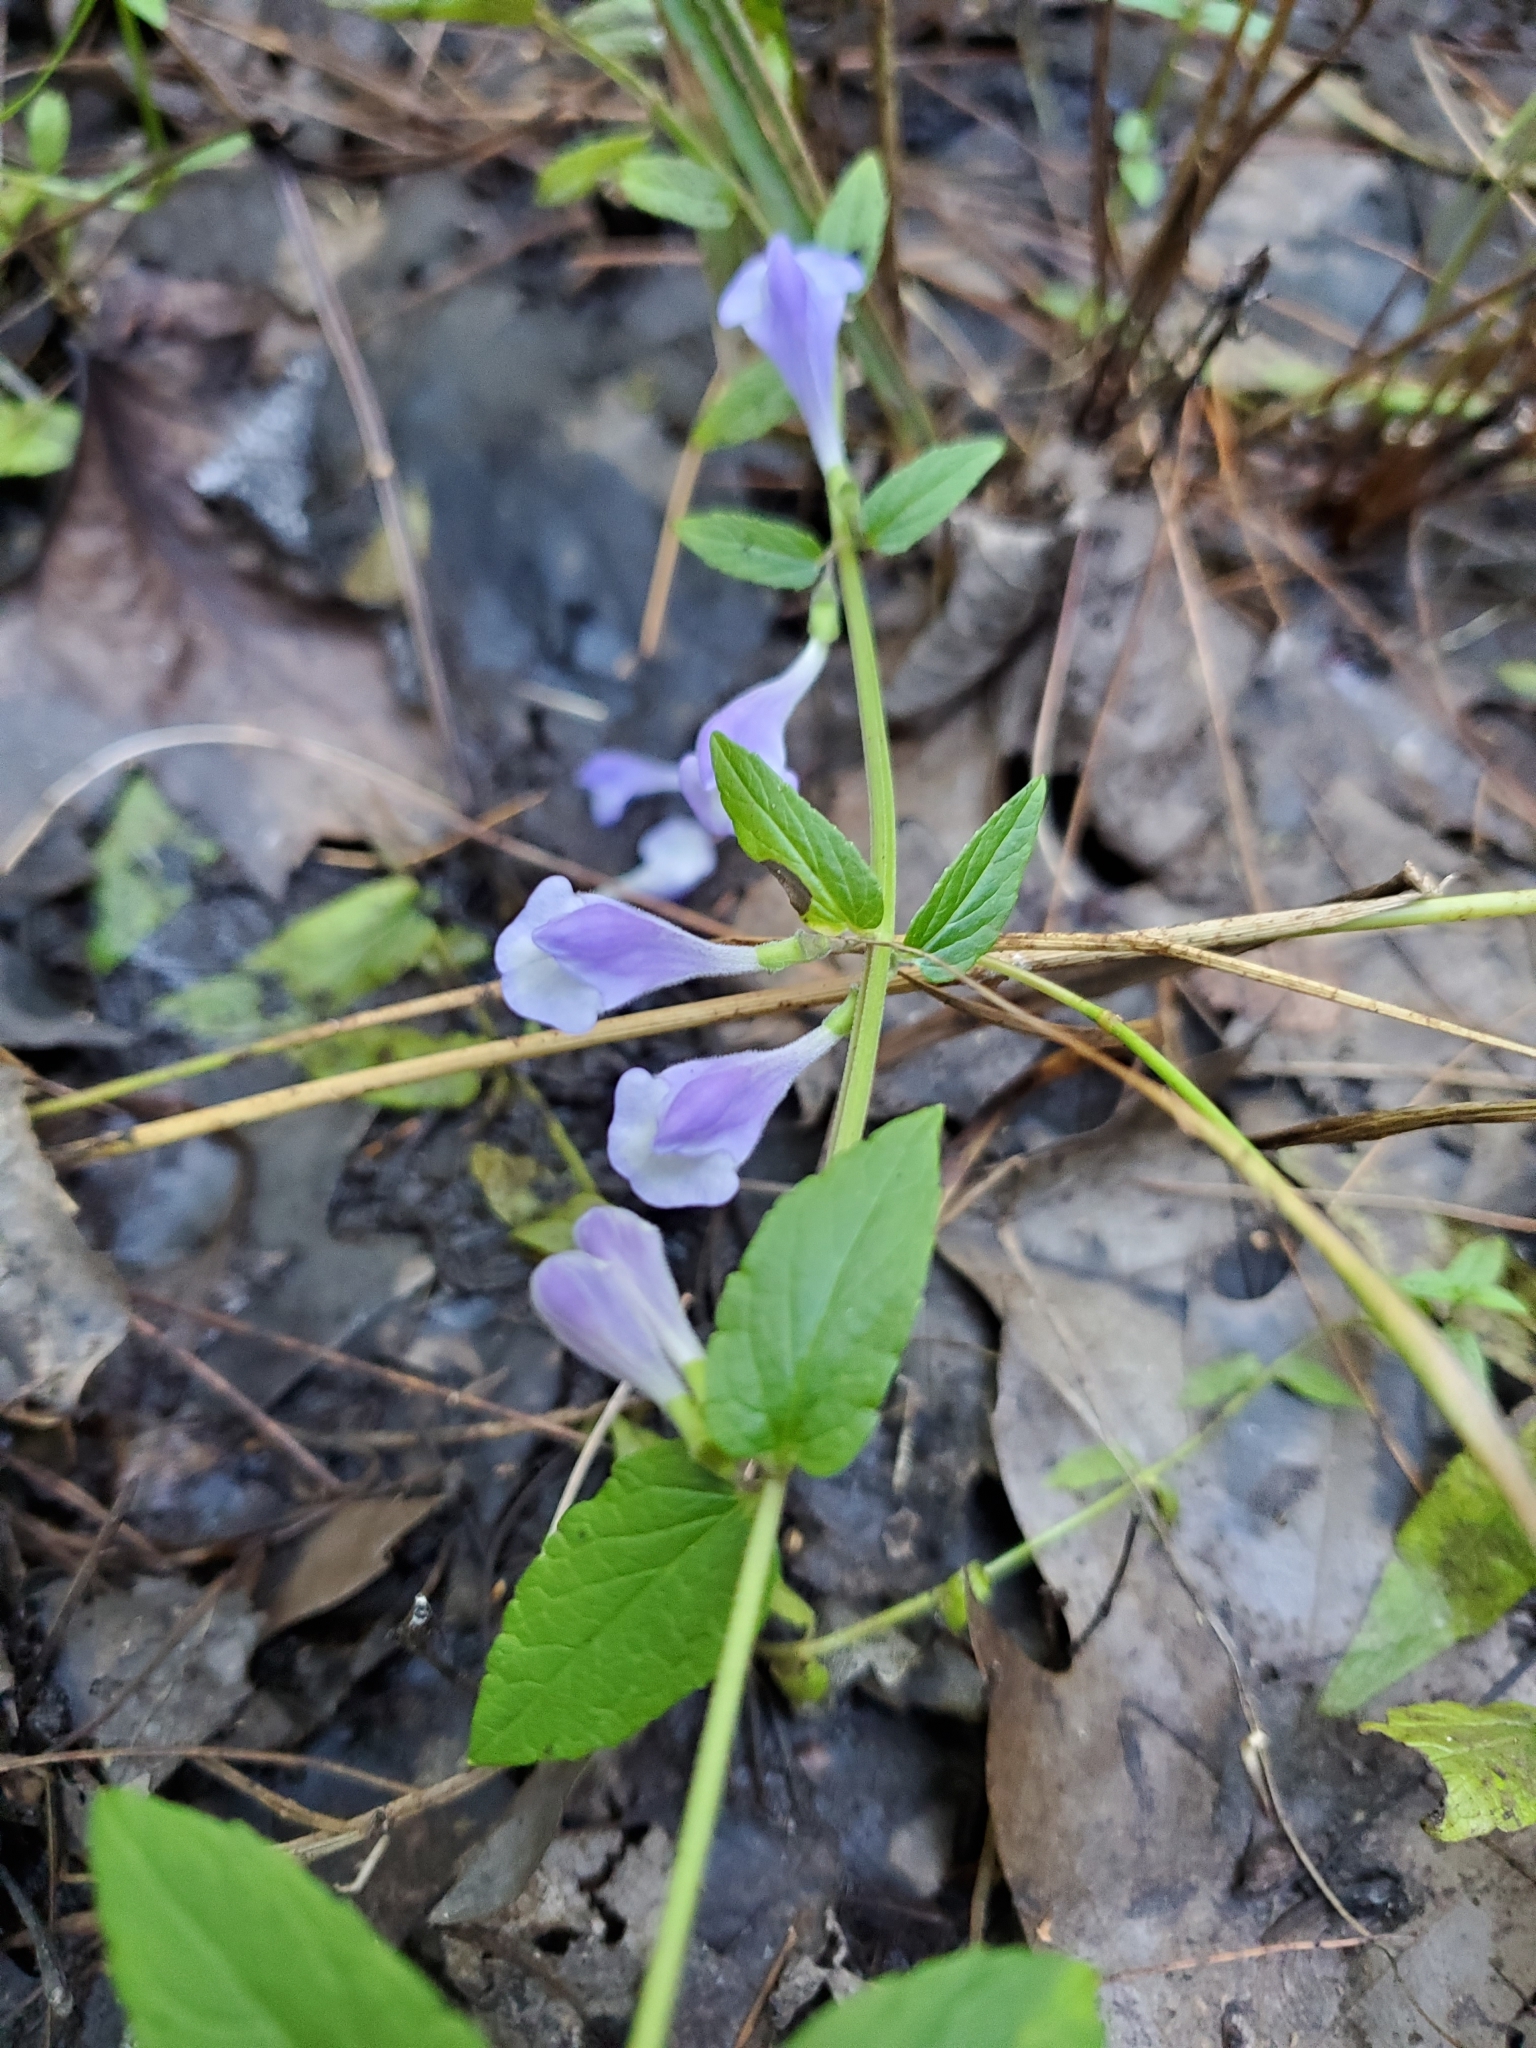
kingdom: Plantae
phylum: Tracheophyta
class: Magnoliopsida
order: Lamiales
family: Lamiaceae
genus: Scutellaria
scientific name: Scutellaria galericulata
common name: Skullcap
